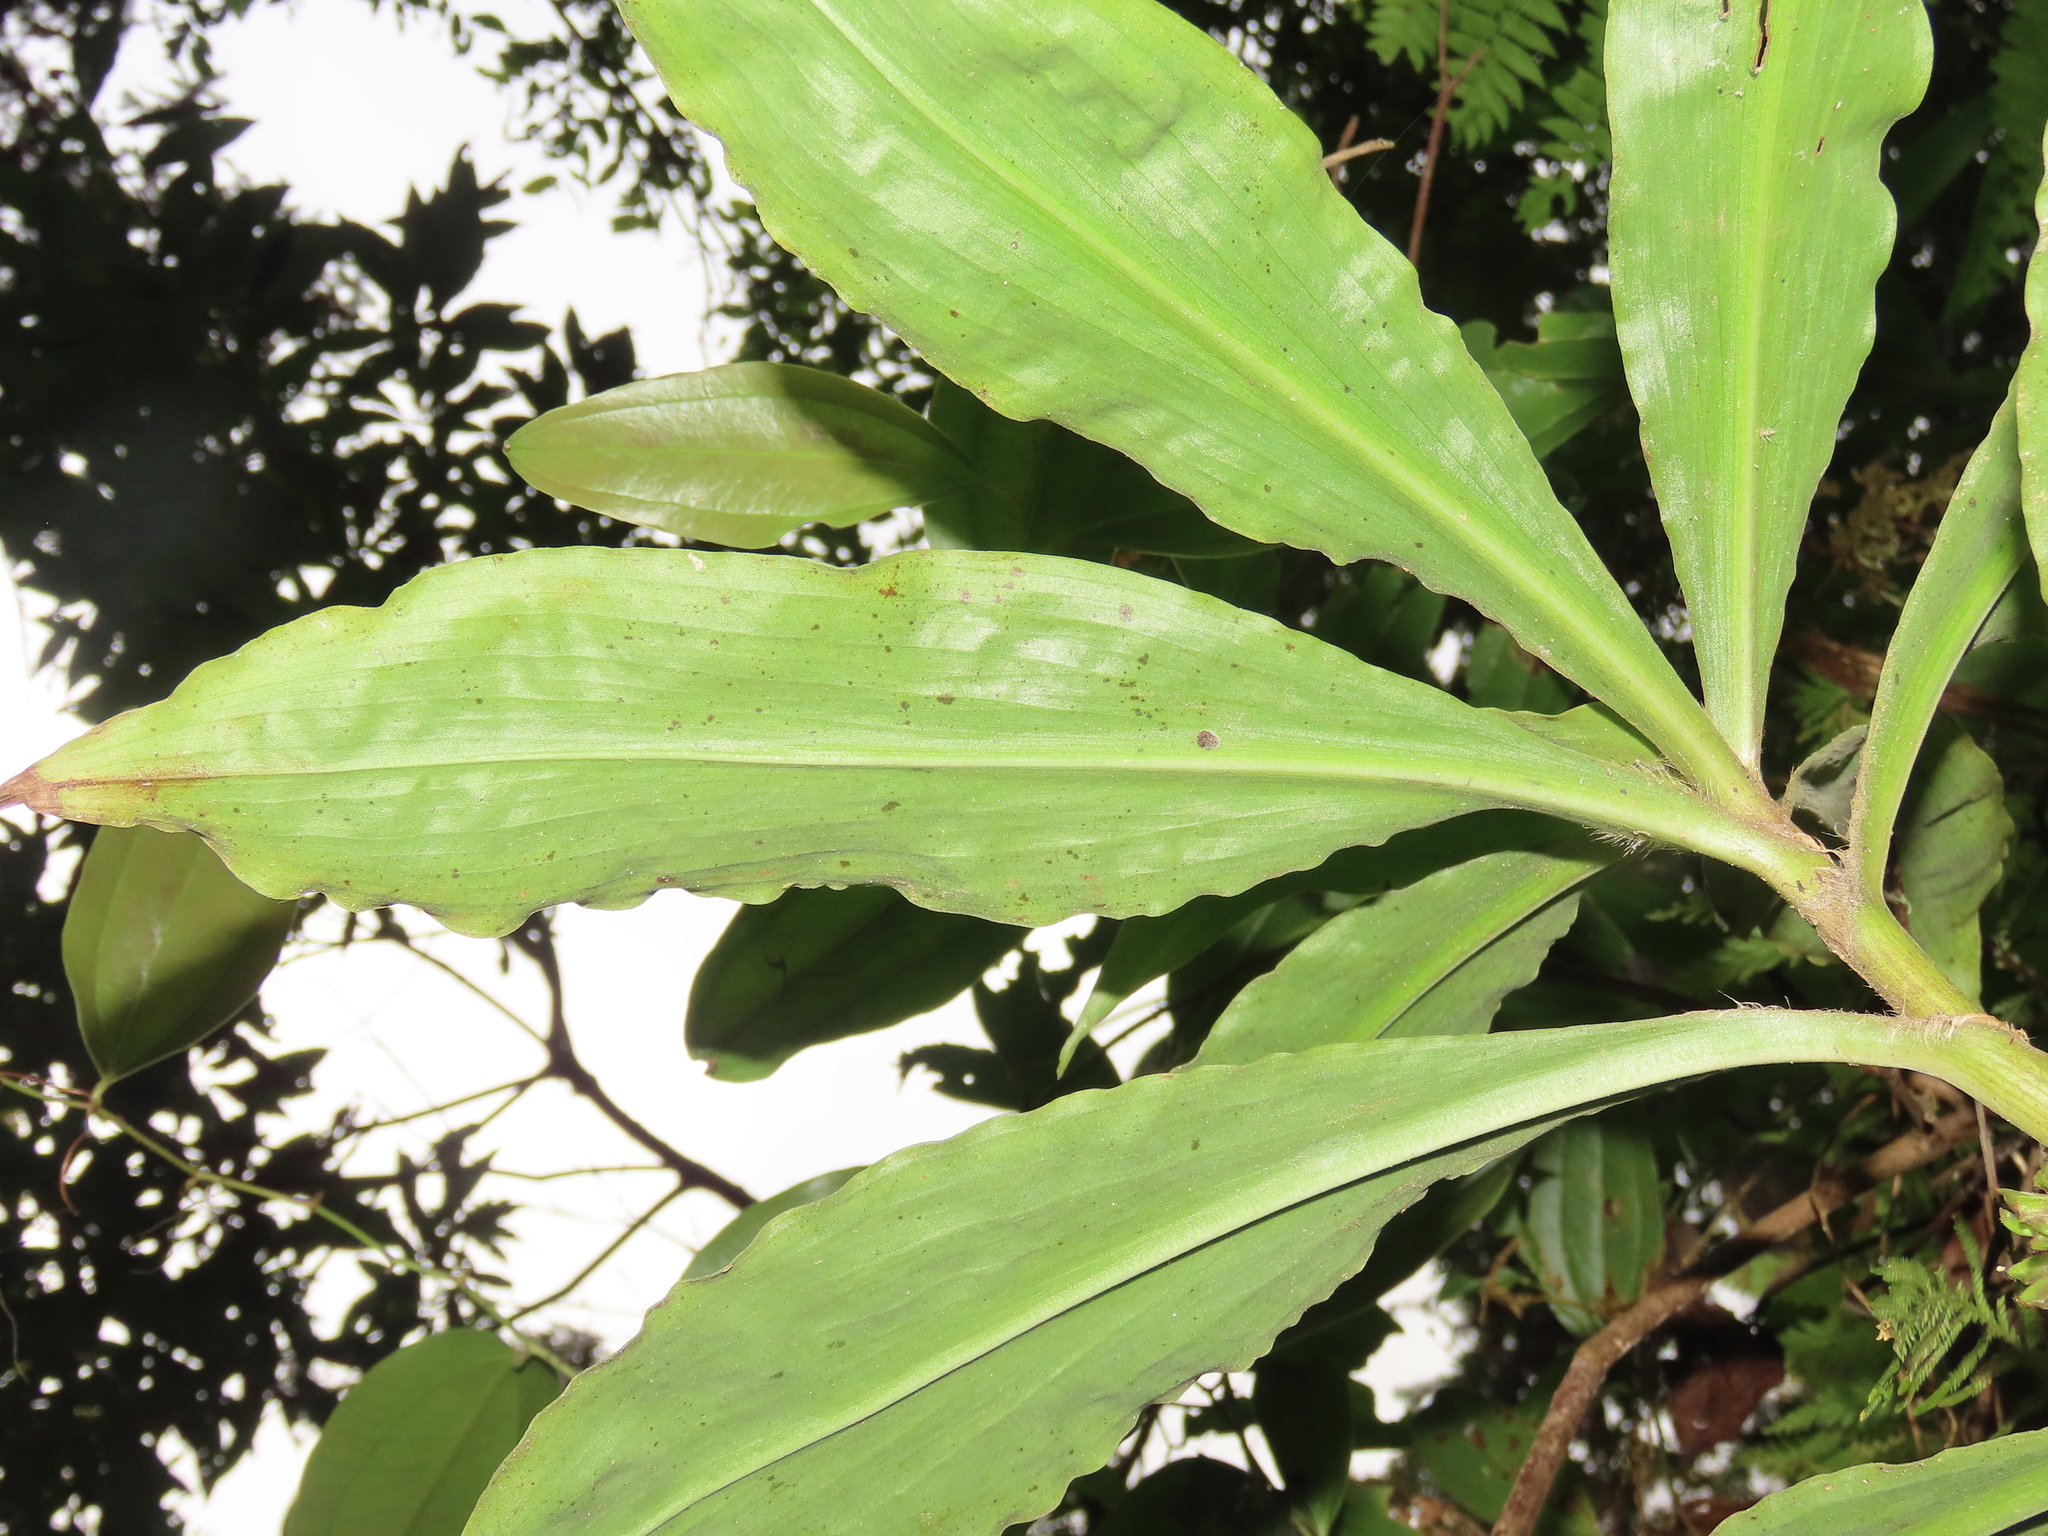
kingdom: Plantae
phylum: Tracheophyta
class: Liliopsida
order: Commelinales
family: Commelinaceae
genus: Amischotolype
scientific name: Amischotolype glabrata
